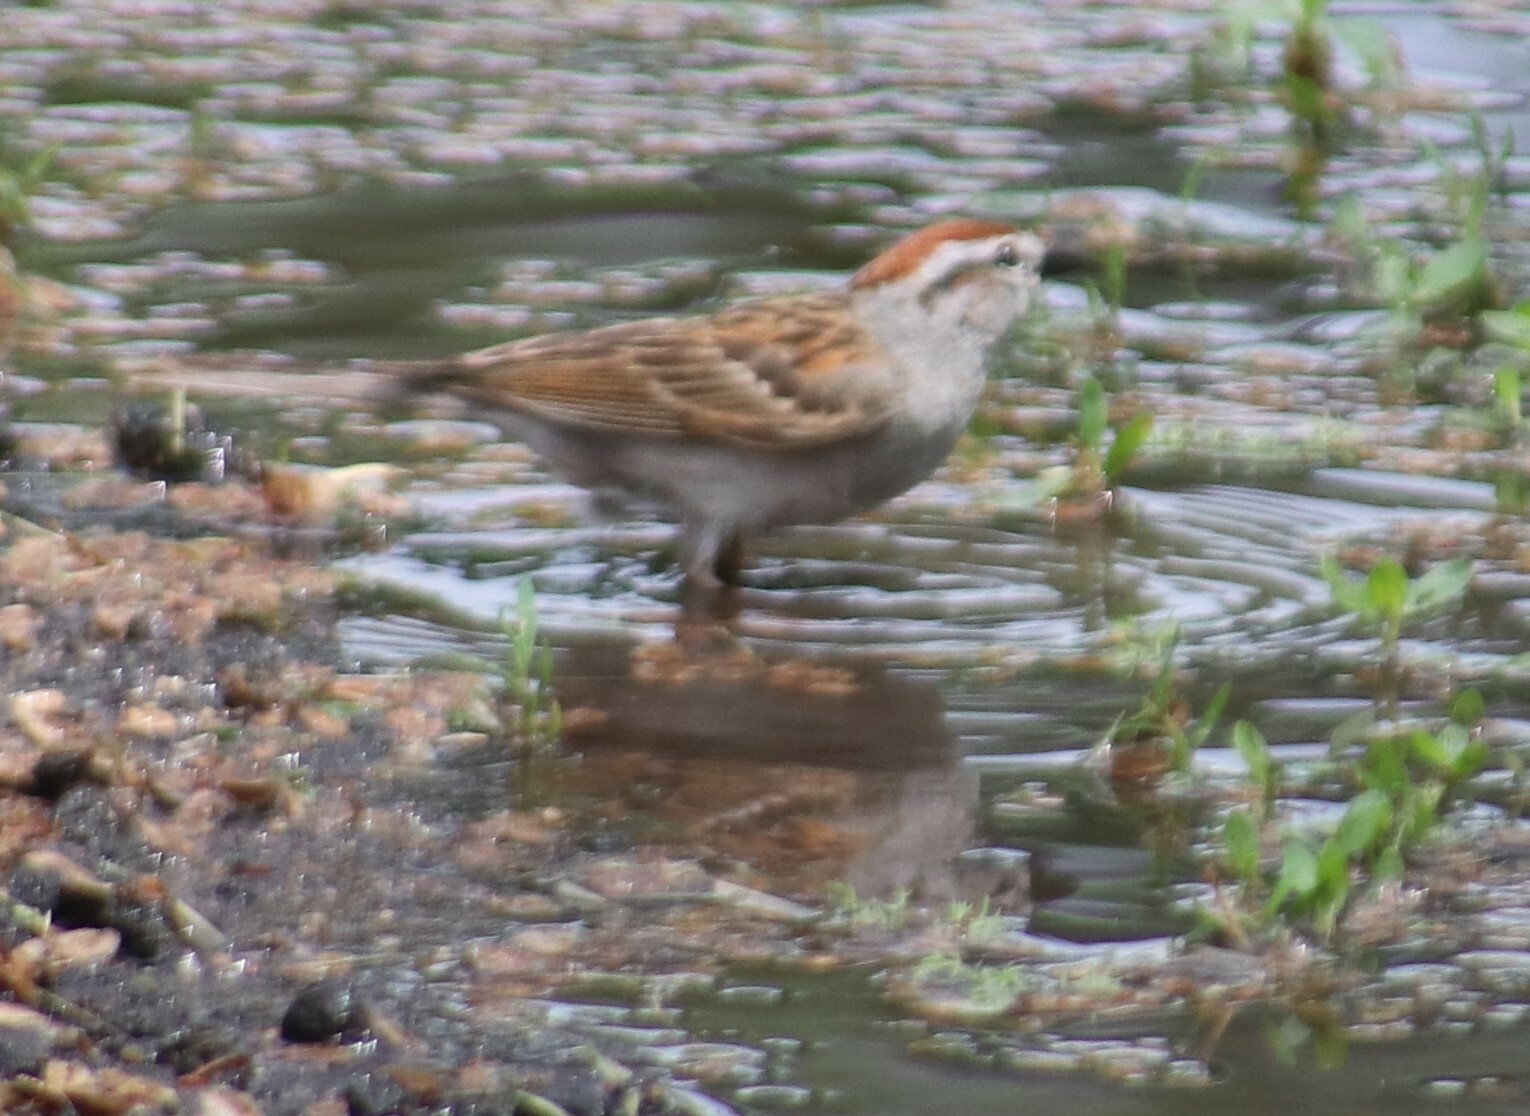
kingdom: Animalia
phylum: Chordata
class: Aves
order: Passeriformes
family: Passerellidae
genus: Spizella
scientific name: Spizella passerina
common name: Chipping sparrow
